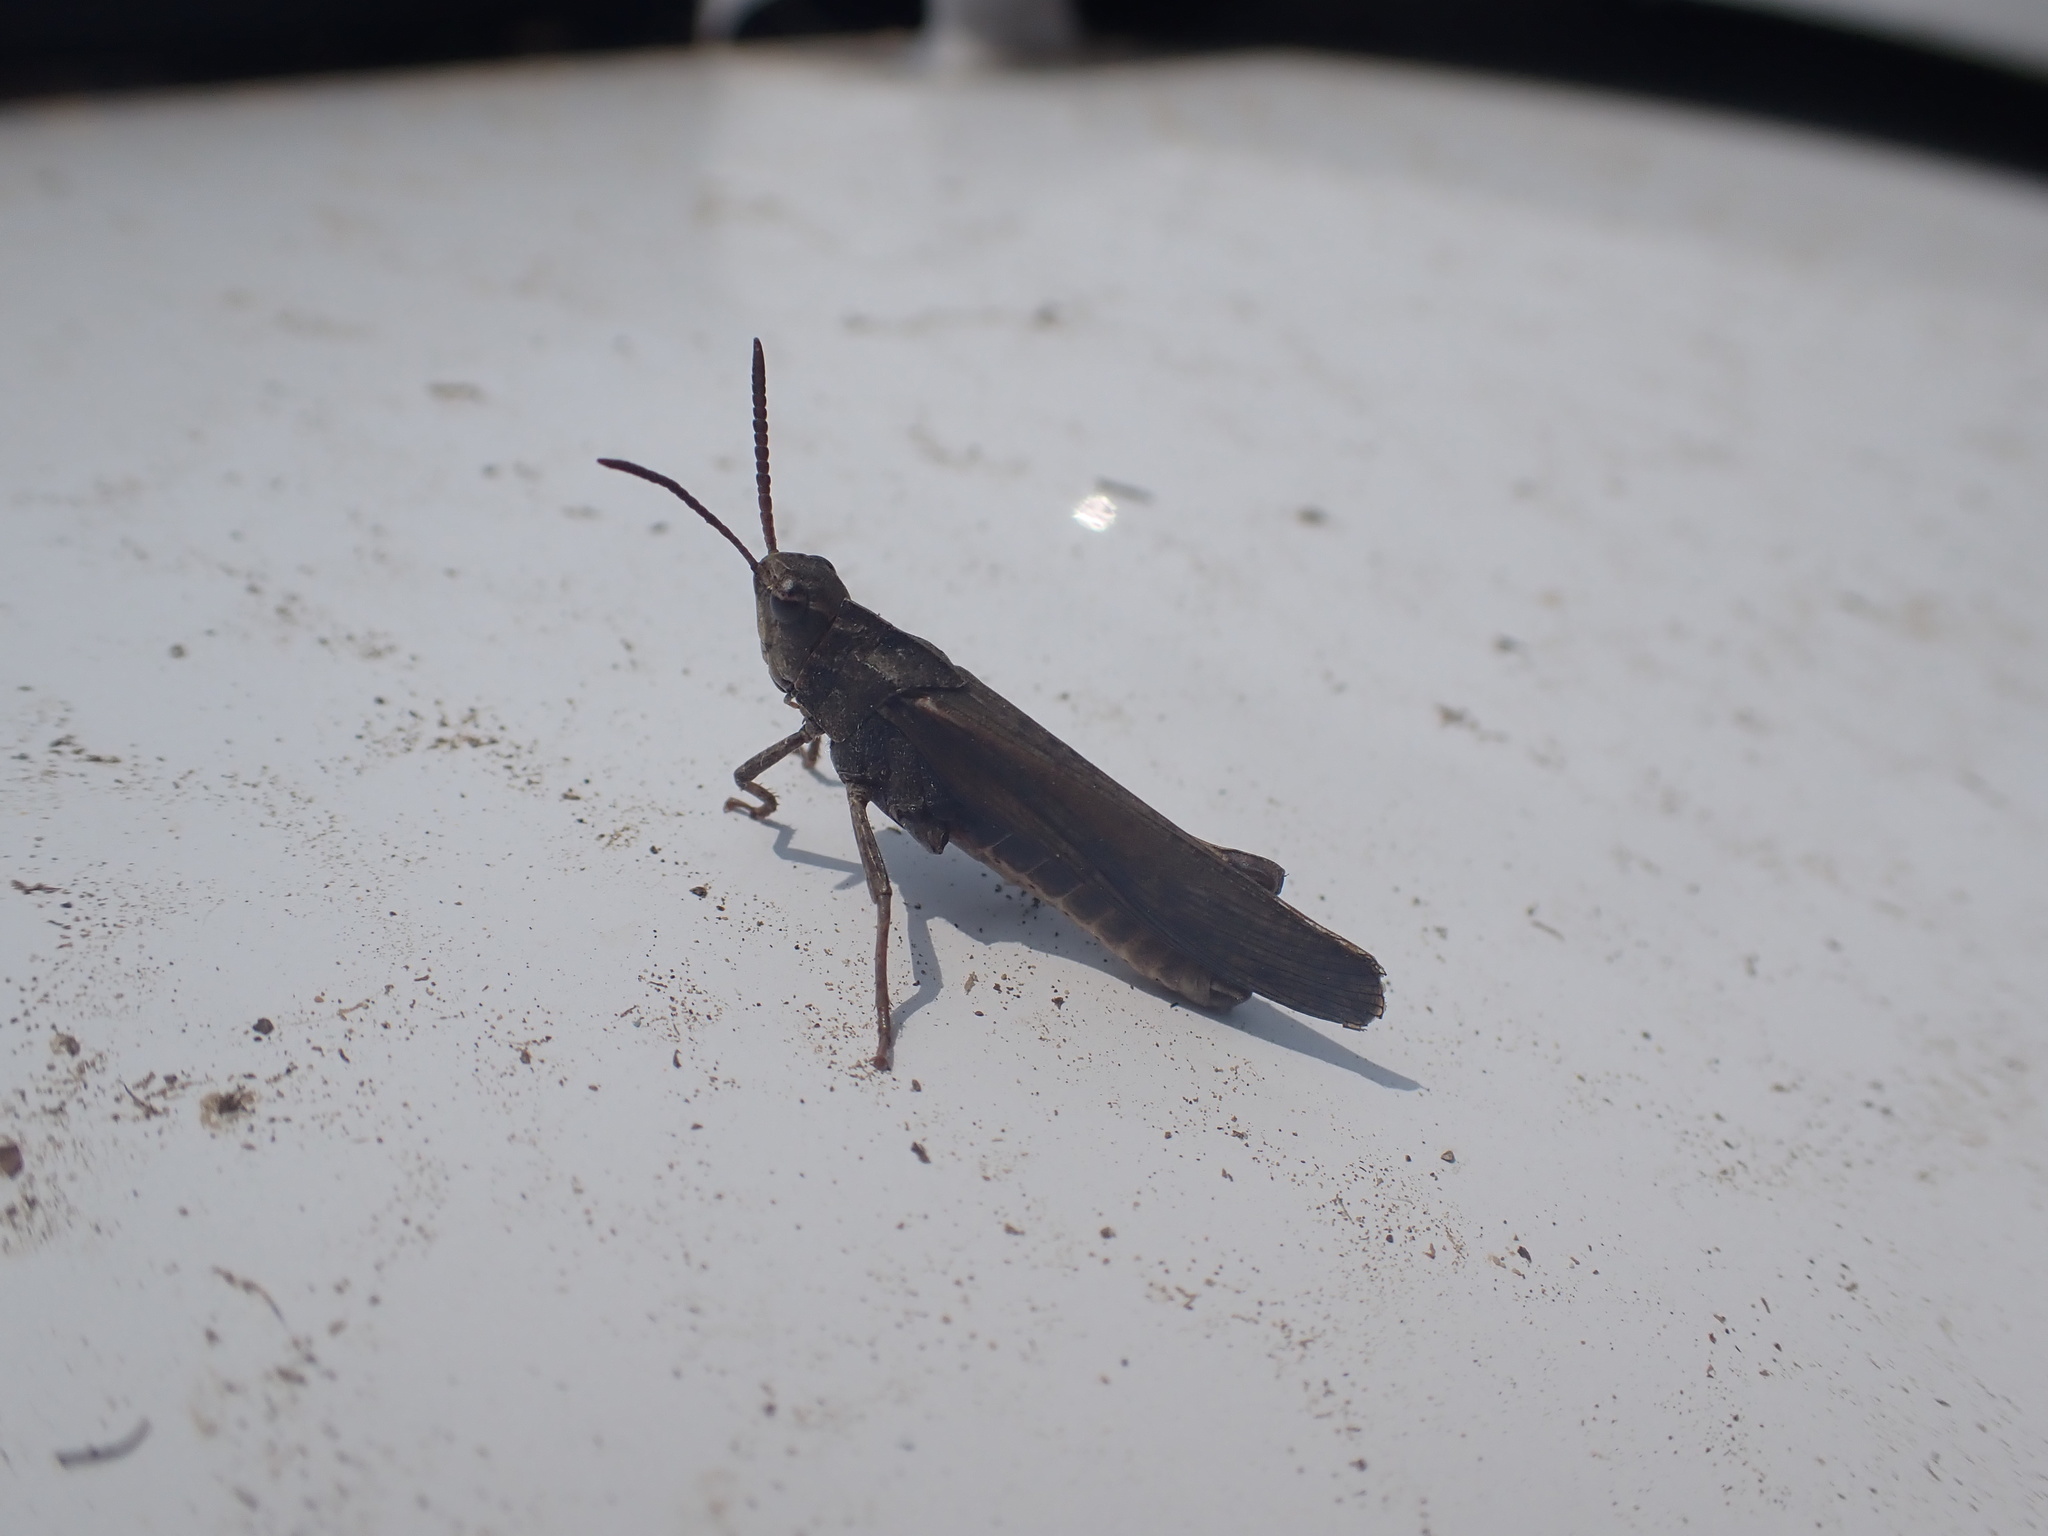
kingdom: Animalia
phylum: Arthropoda
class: Insecta
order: Orthoptera
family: Acrididae
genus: Chortophaga
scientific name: Chortophaga viridifasciata
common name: Green-striped grasshopper
